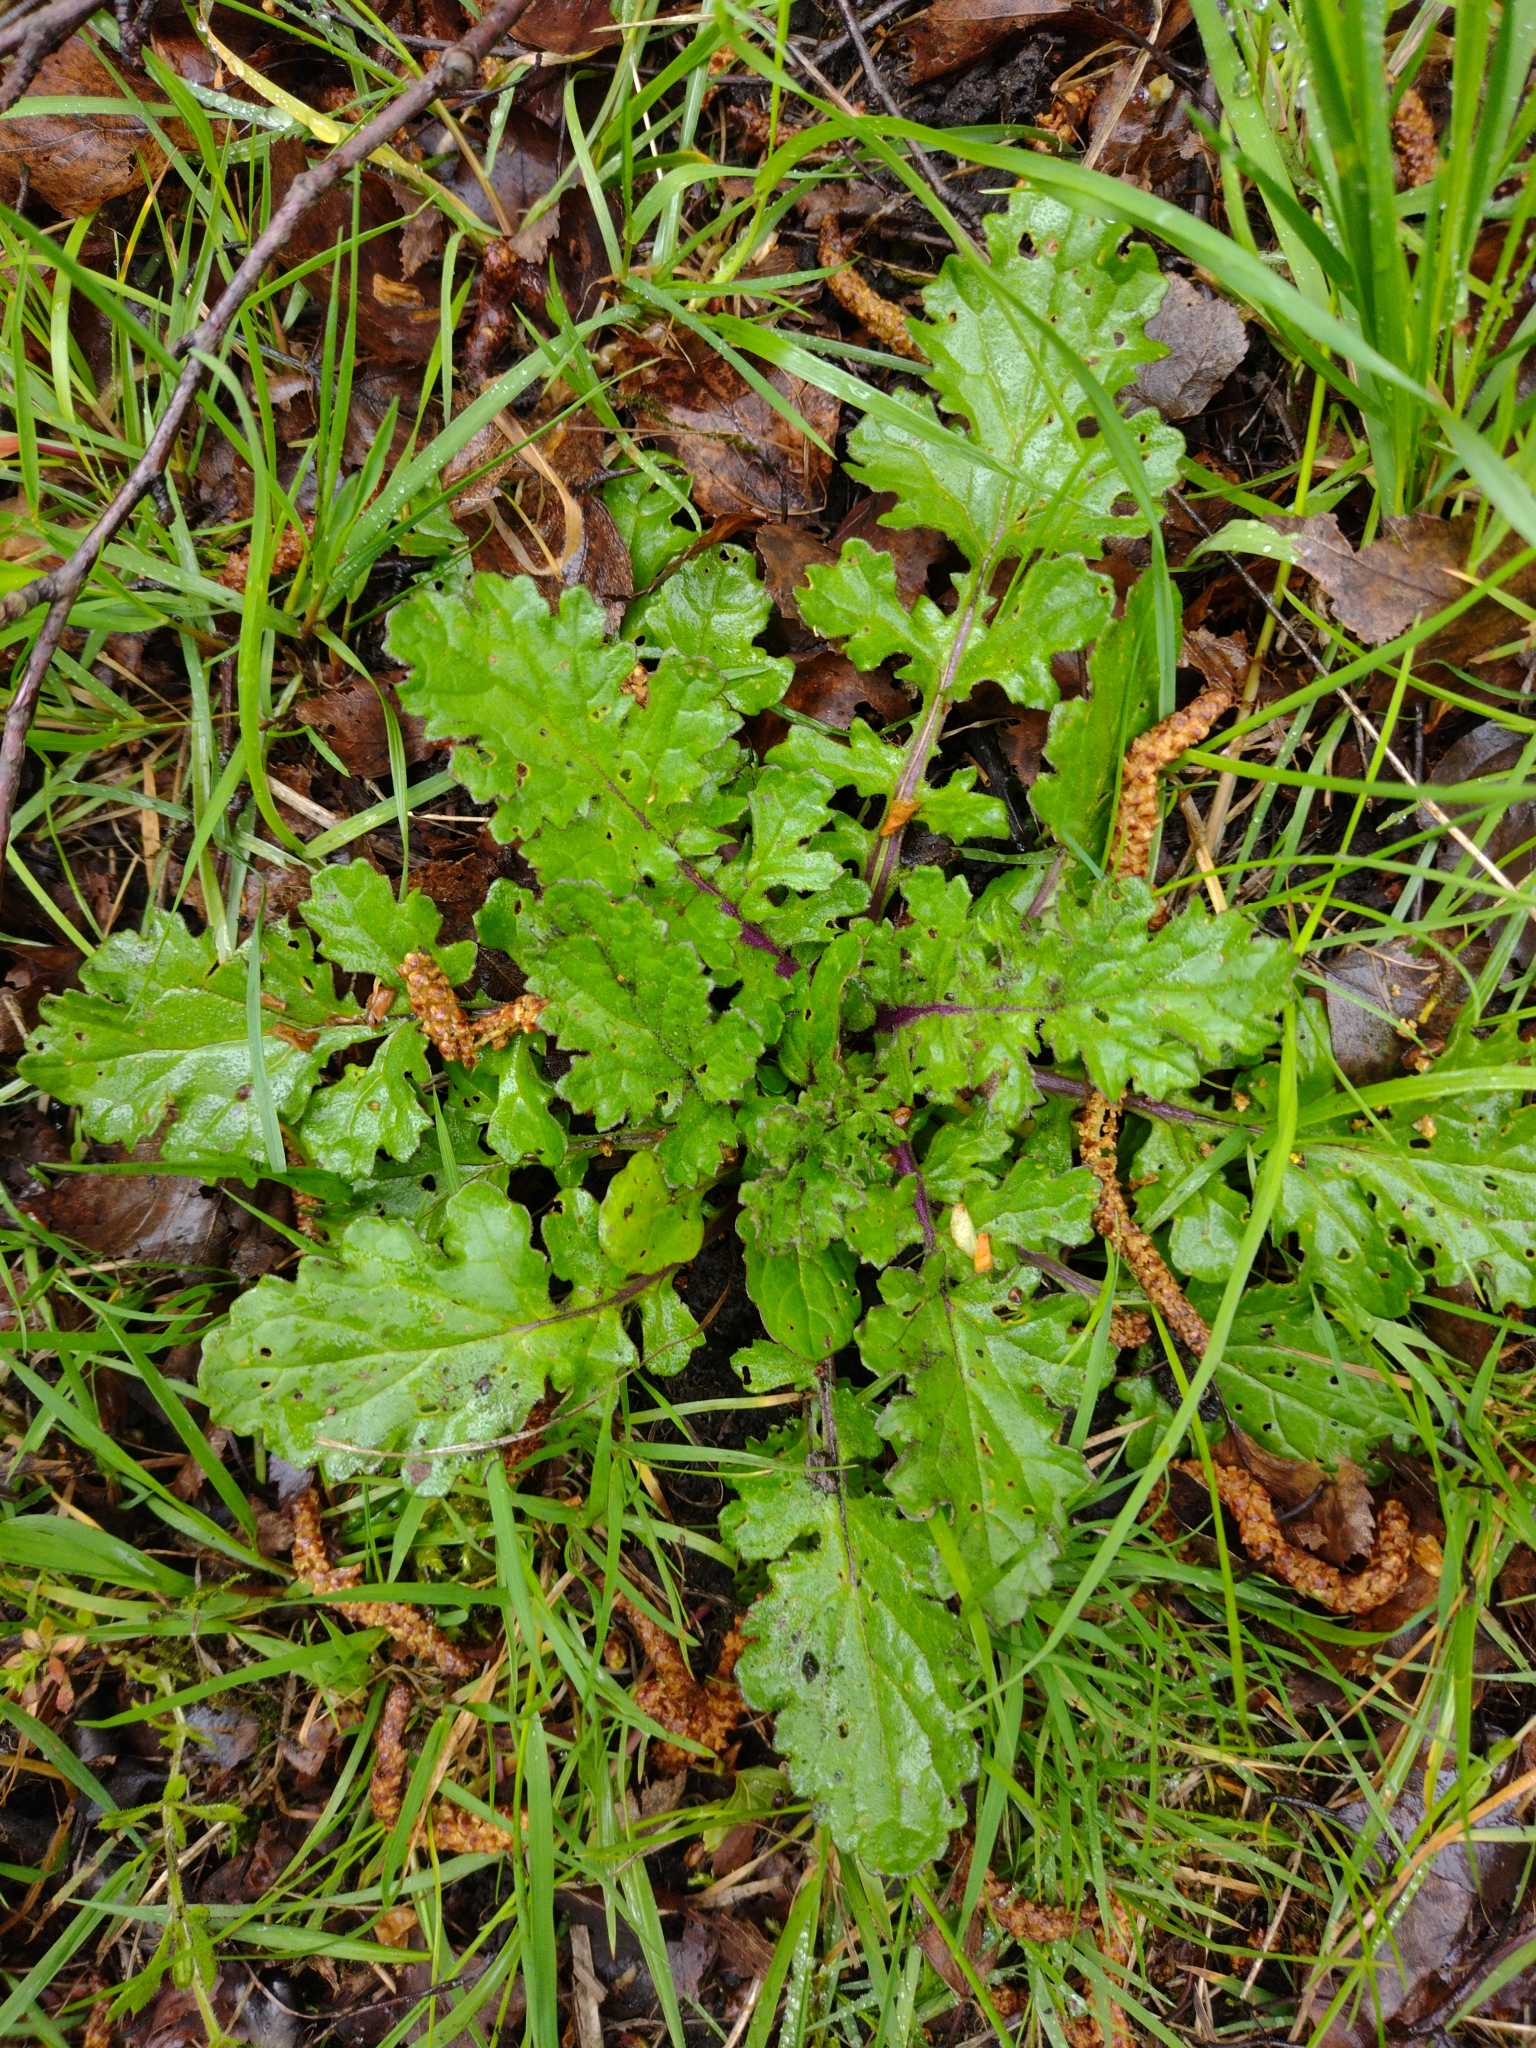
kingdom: Plantae
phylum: Tracheophyta
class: Magnoliopsida
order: Asterales
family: Asteraceae
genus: Jacobaea
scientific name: Jacobaea vulgaris
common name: Stinking willie
